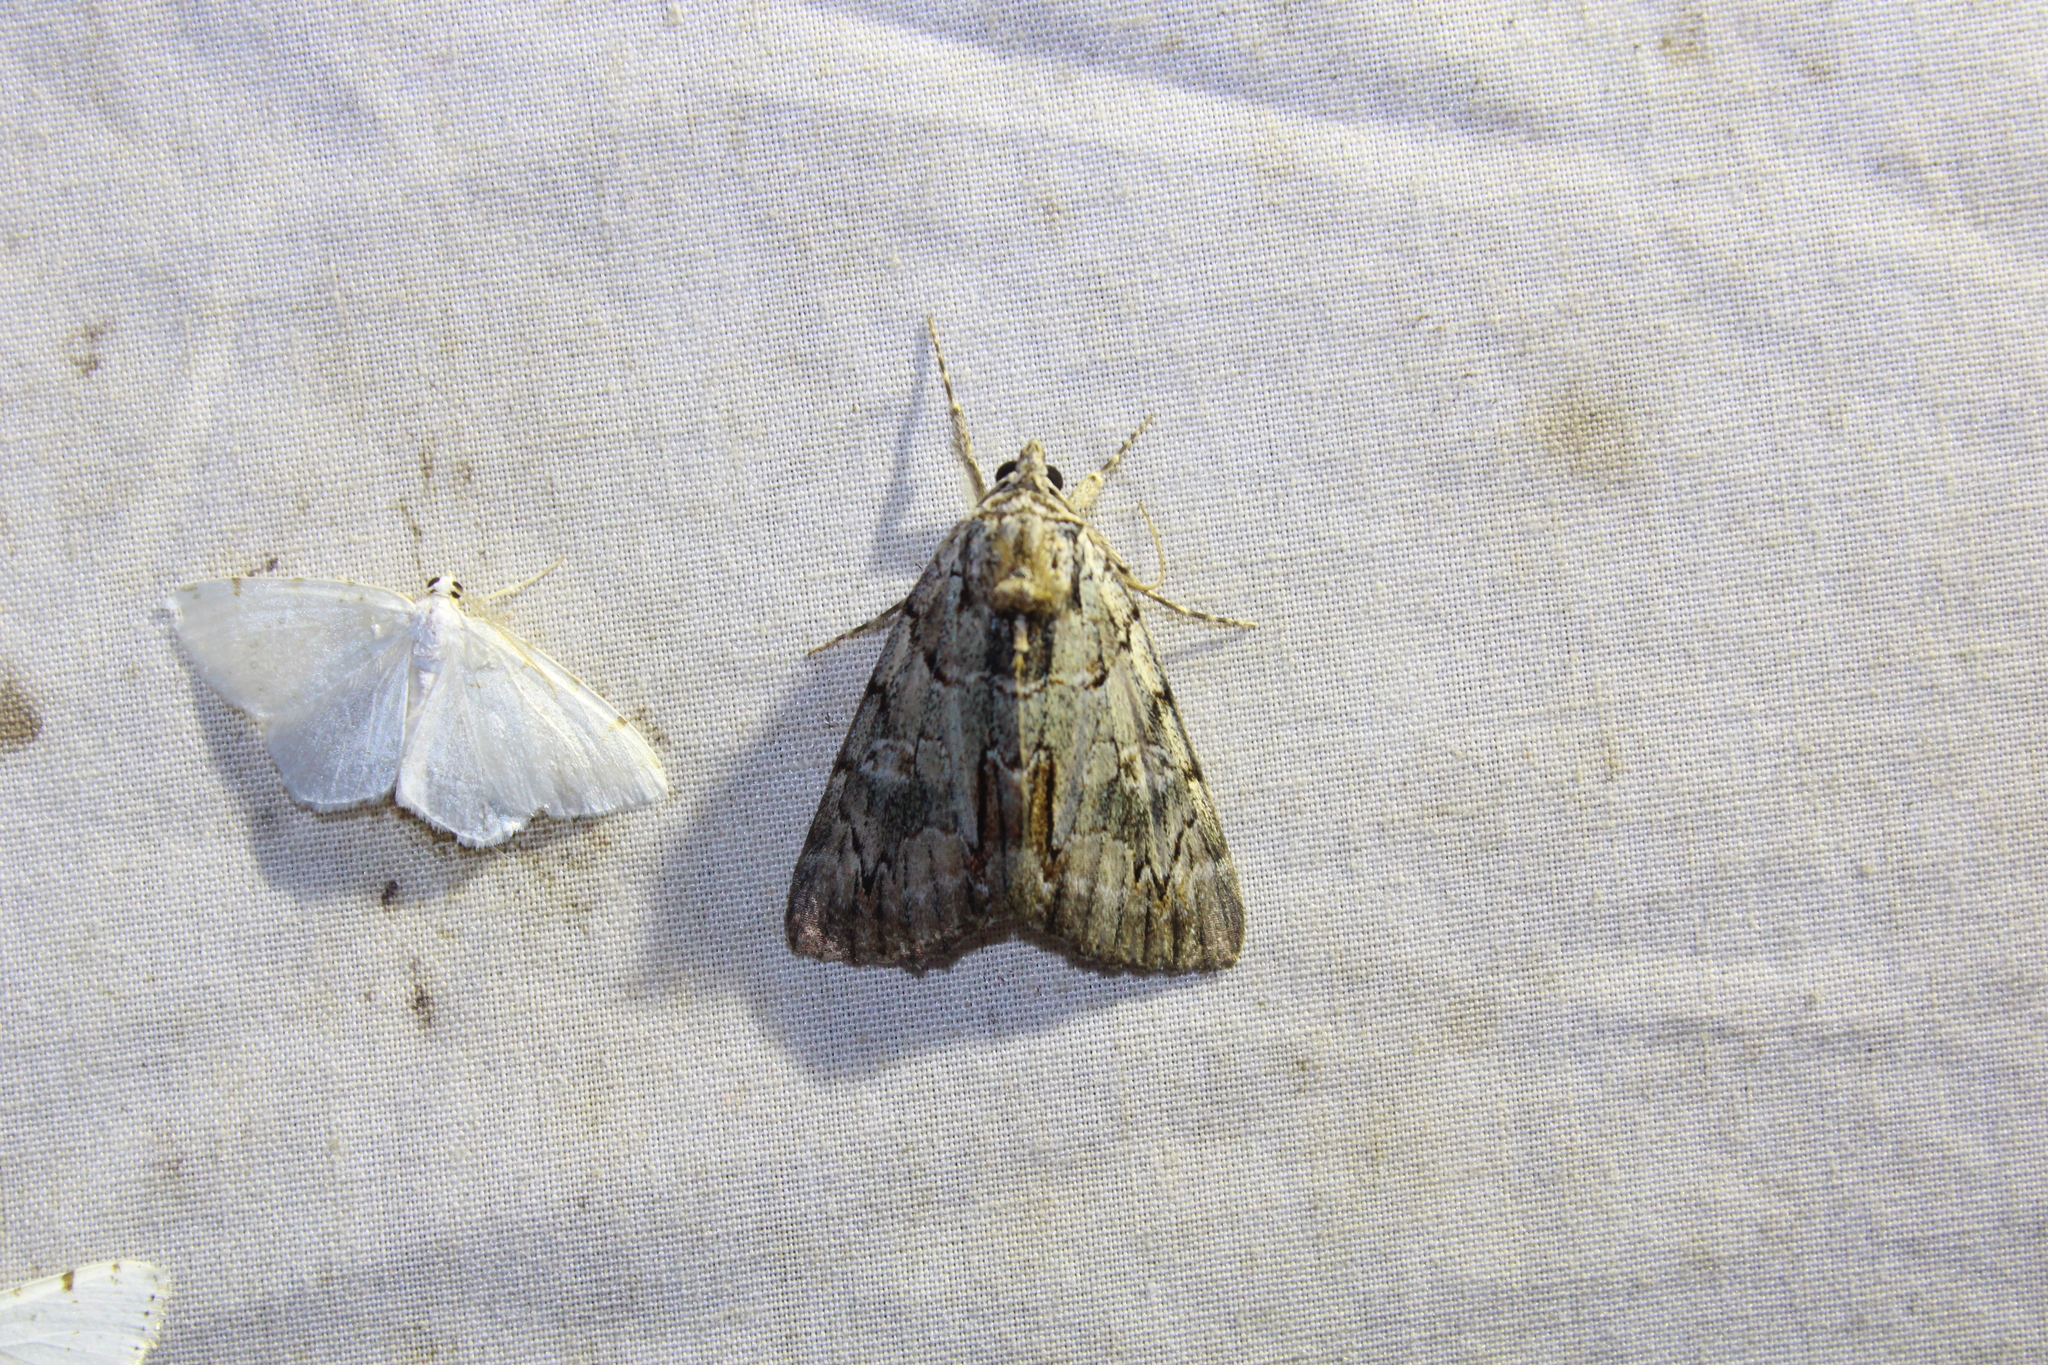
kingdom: Animalia
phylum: Arthropoda
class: Insecta
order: Lepidoptera
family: Erebidae
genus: Catocala
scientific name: Catocala praeclara
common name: Praeclara underwing
